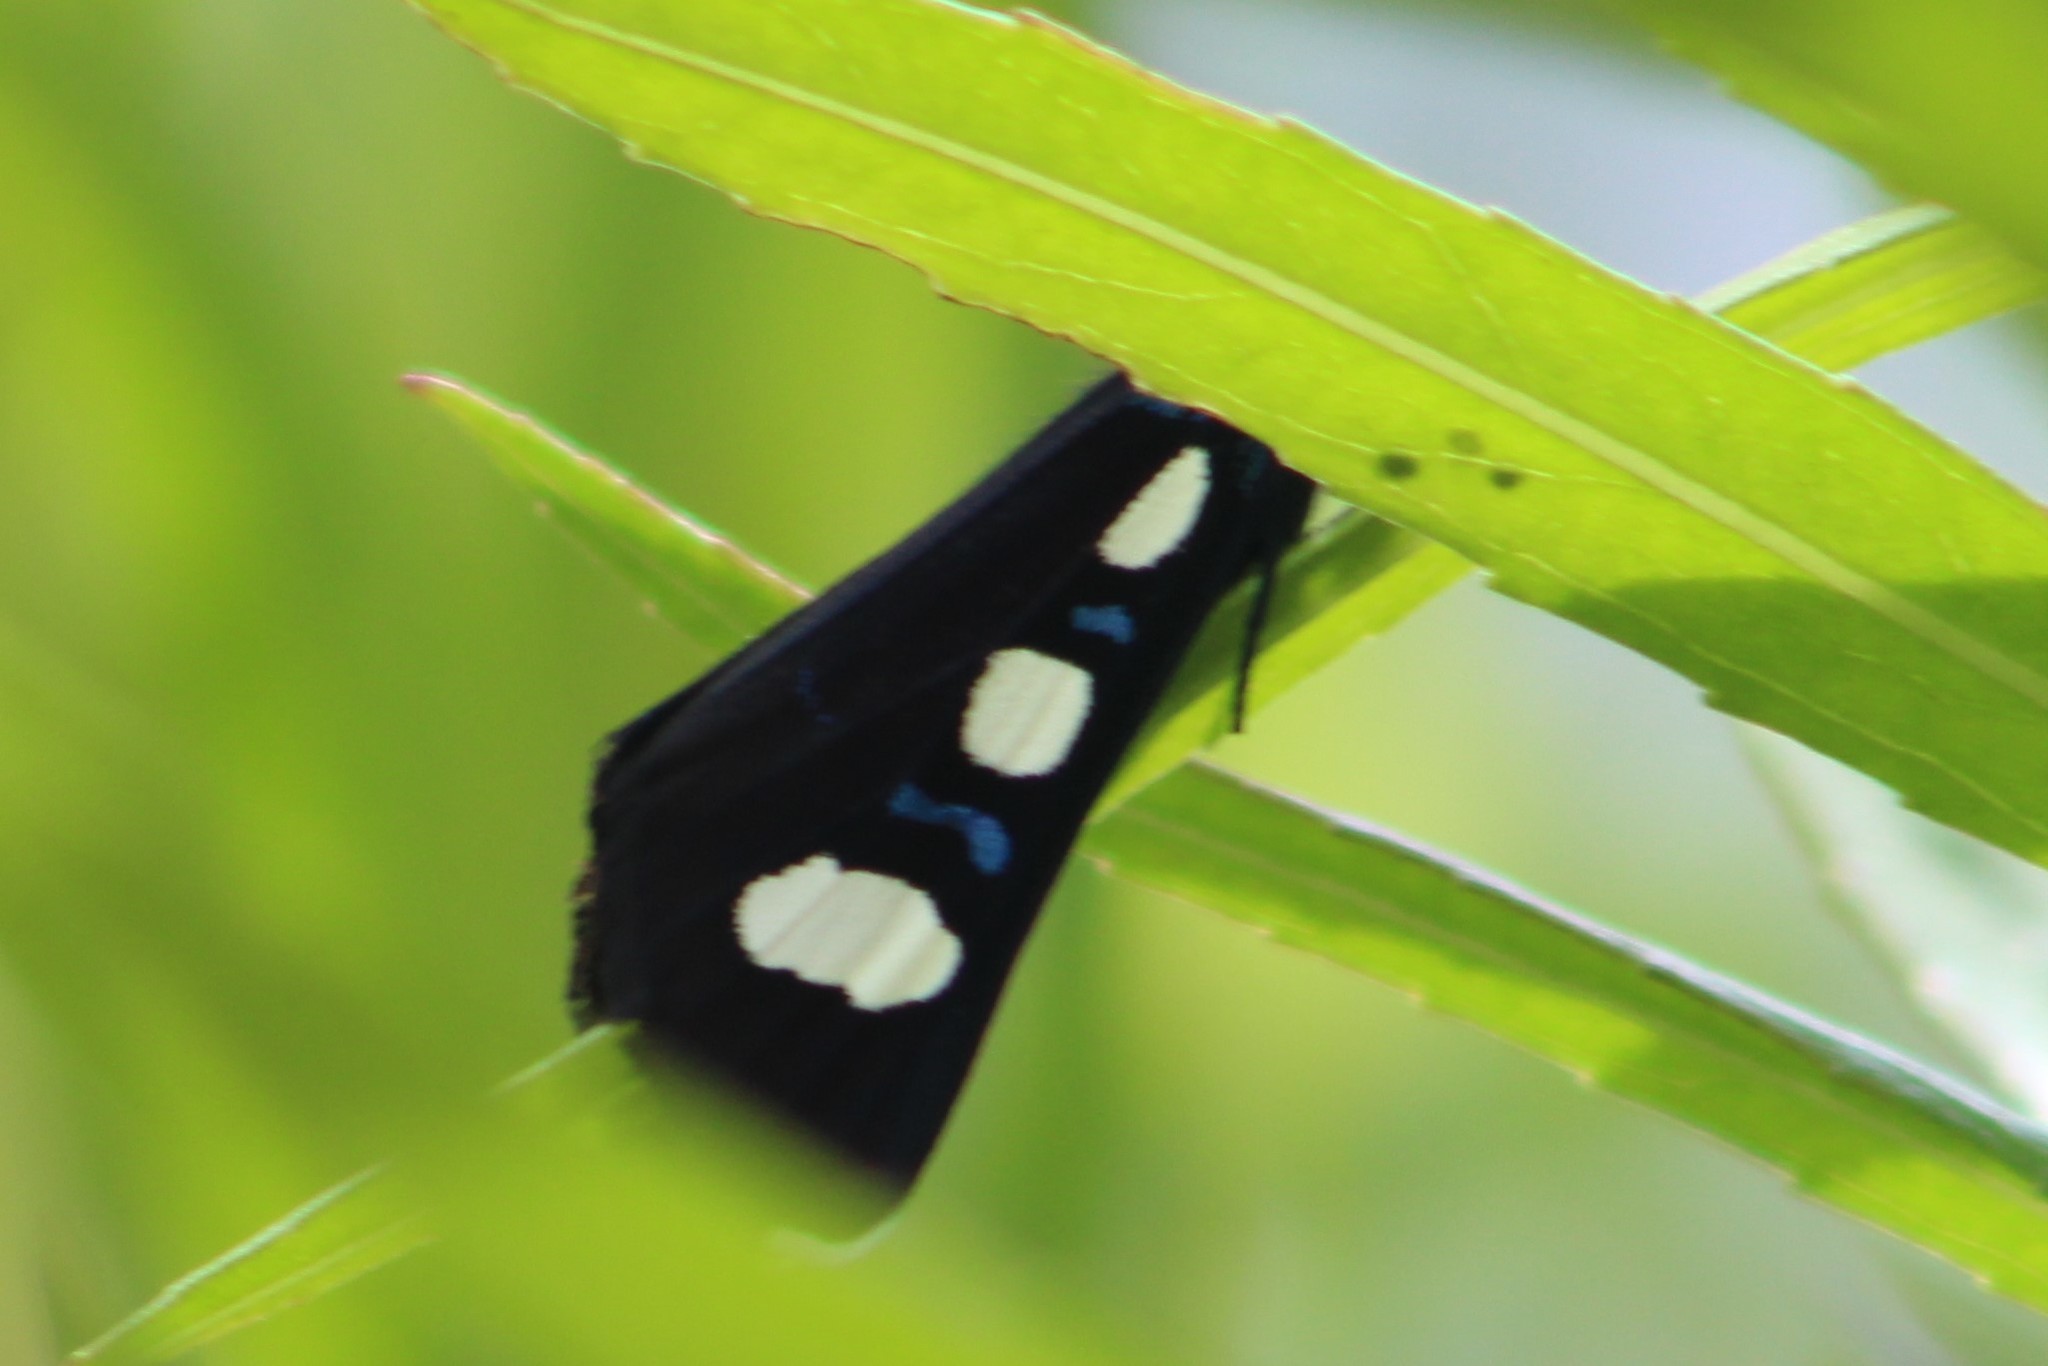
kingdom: Animalia
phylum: Arthropoda
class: Insecta
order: Lepidoptera
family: Noctuidae
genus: Alypiodes
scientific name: Alypiodes bimaculata
